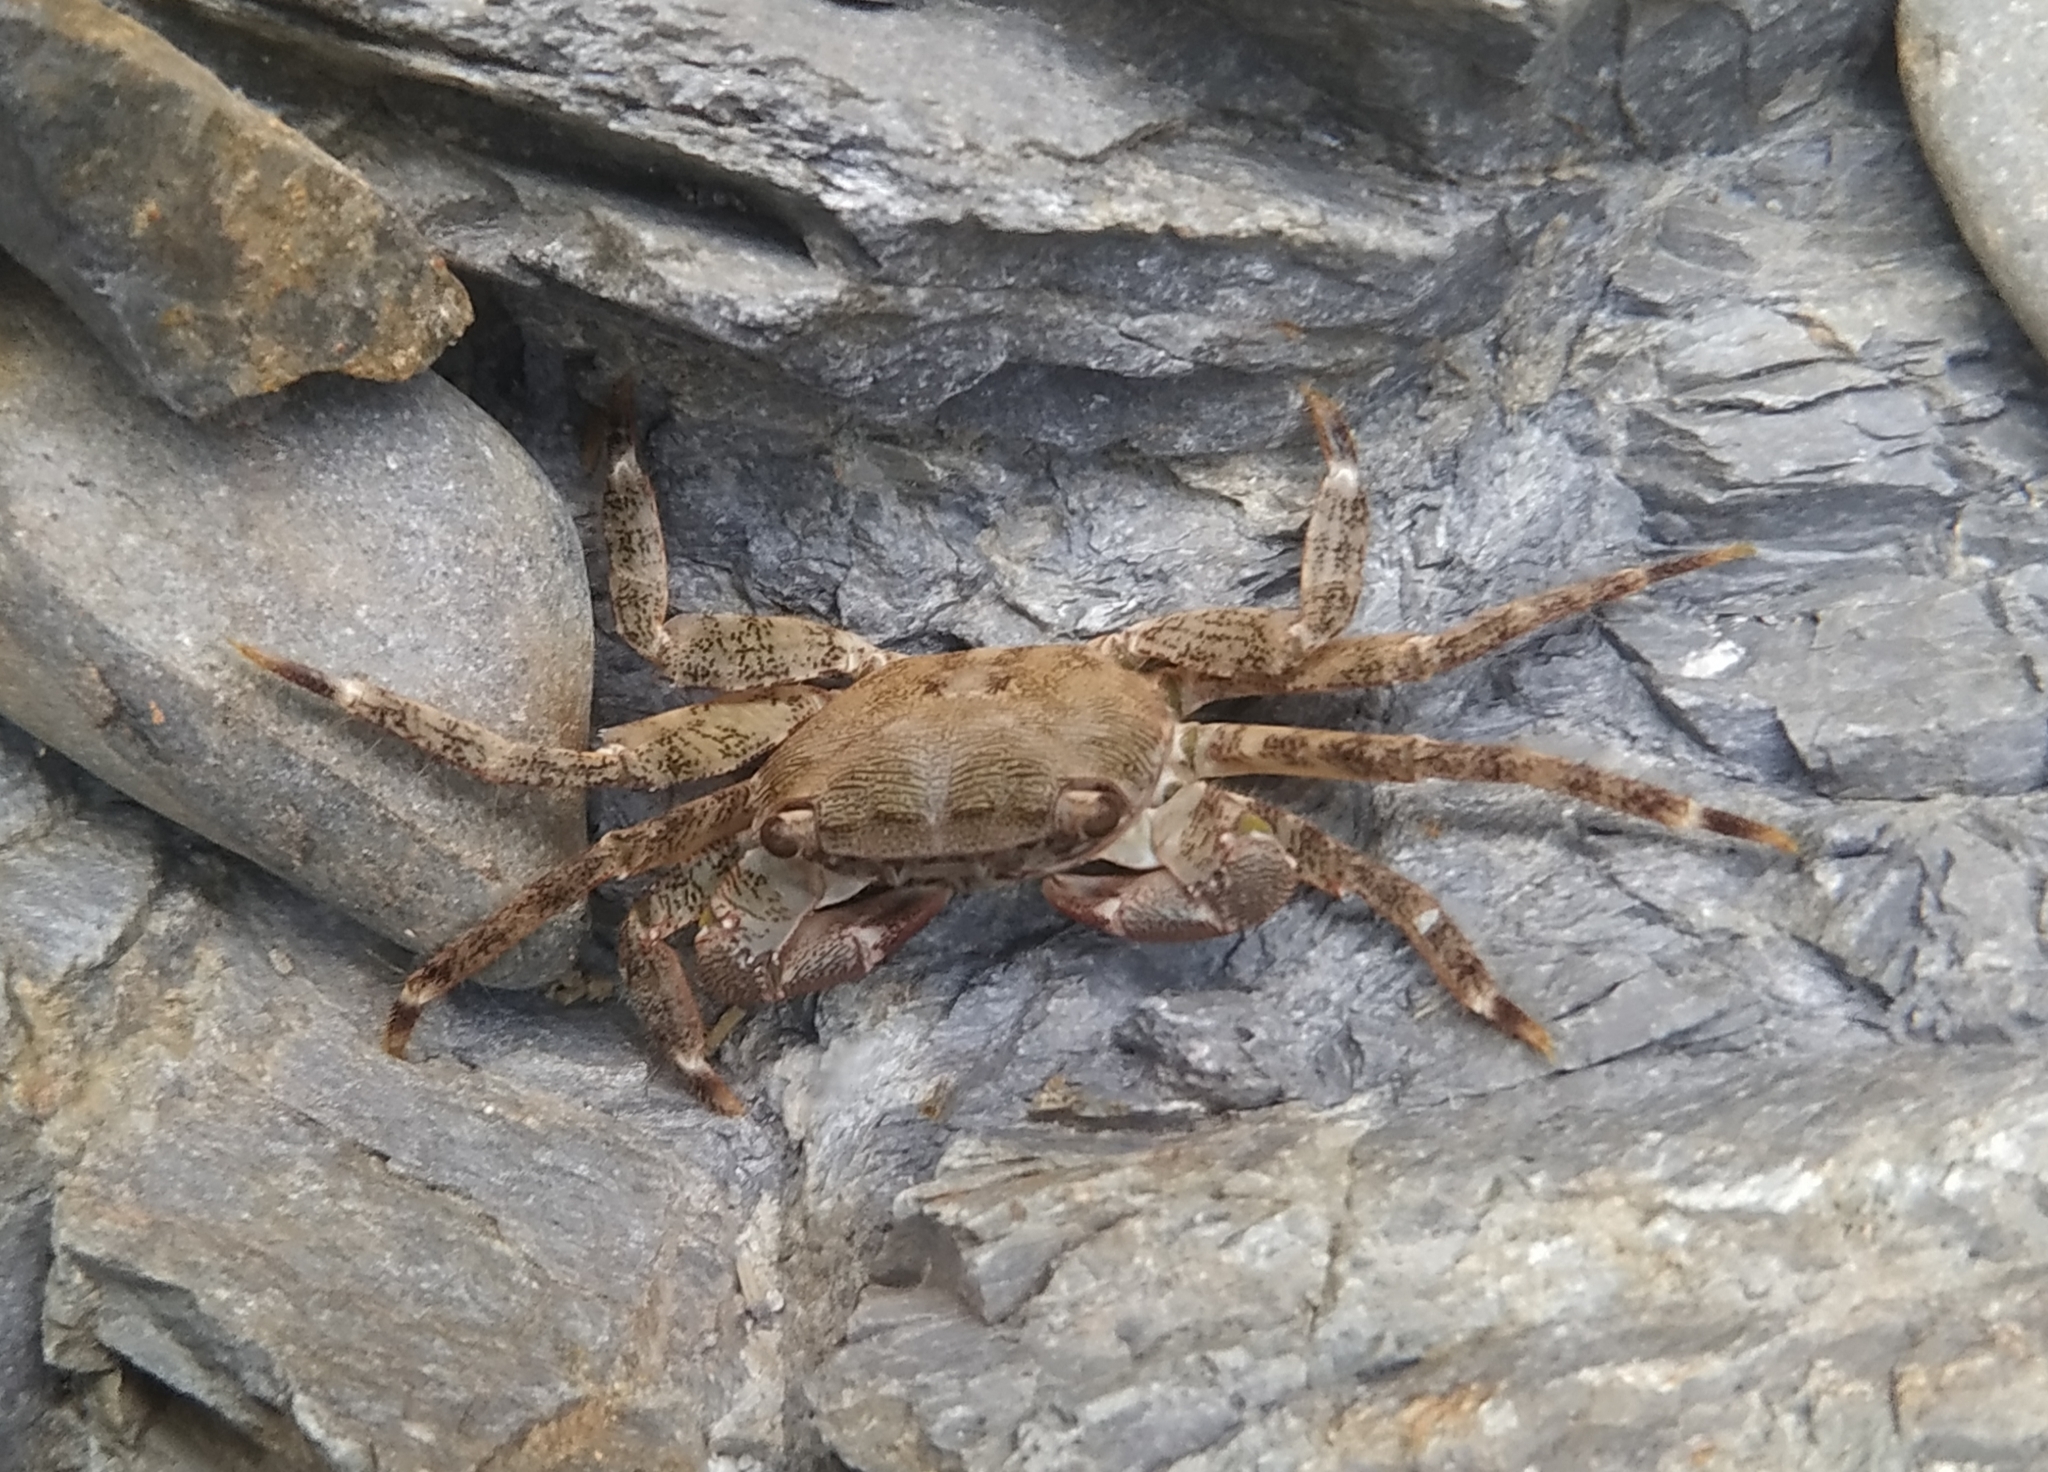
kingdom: Animalia
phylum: Arthropoda
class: Malacostraca
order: Decapoda
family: Grapsidae
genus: Pachygrapsus
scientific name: Pachygrapsus marmoratus
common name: Marbled rock crab
